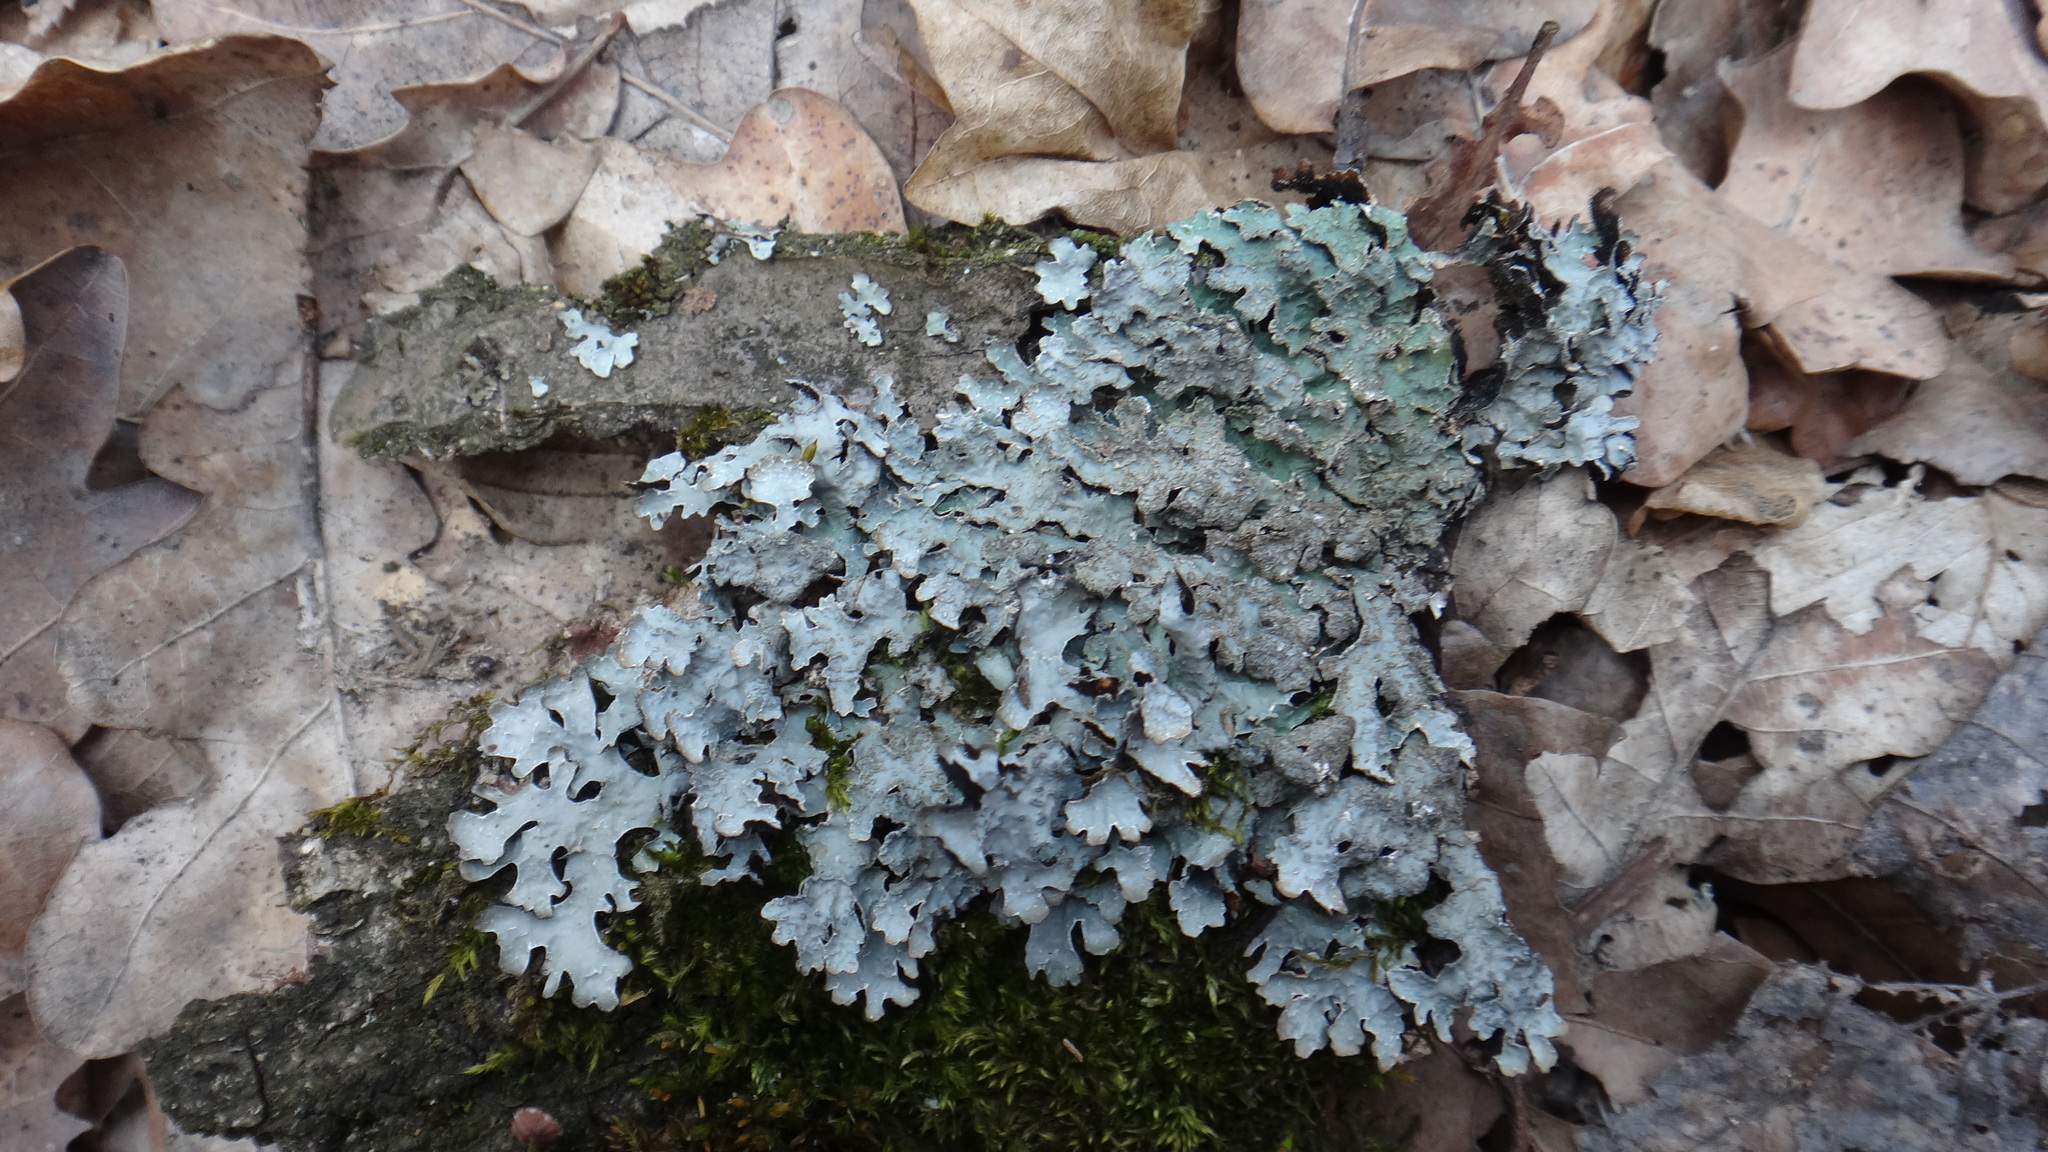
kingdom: Fungi
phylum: Ascomycota
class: Lecanoromycetes
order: Lecanorales
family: Parmeliaceae
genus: Parmelia
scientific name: Parmelia sulcata
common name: Netted shield lichen
